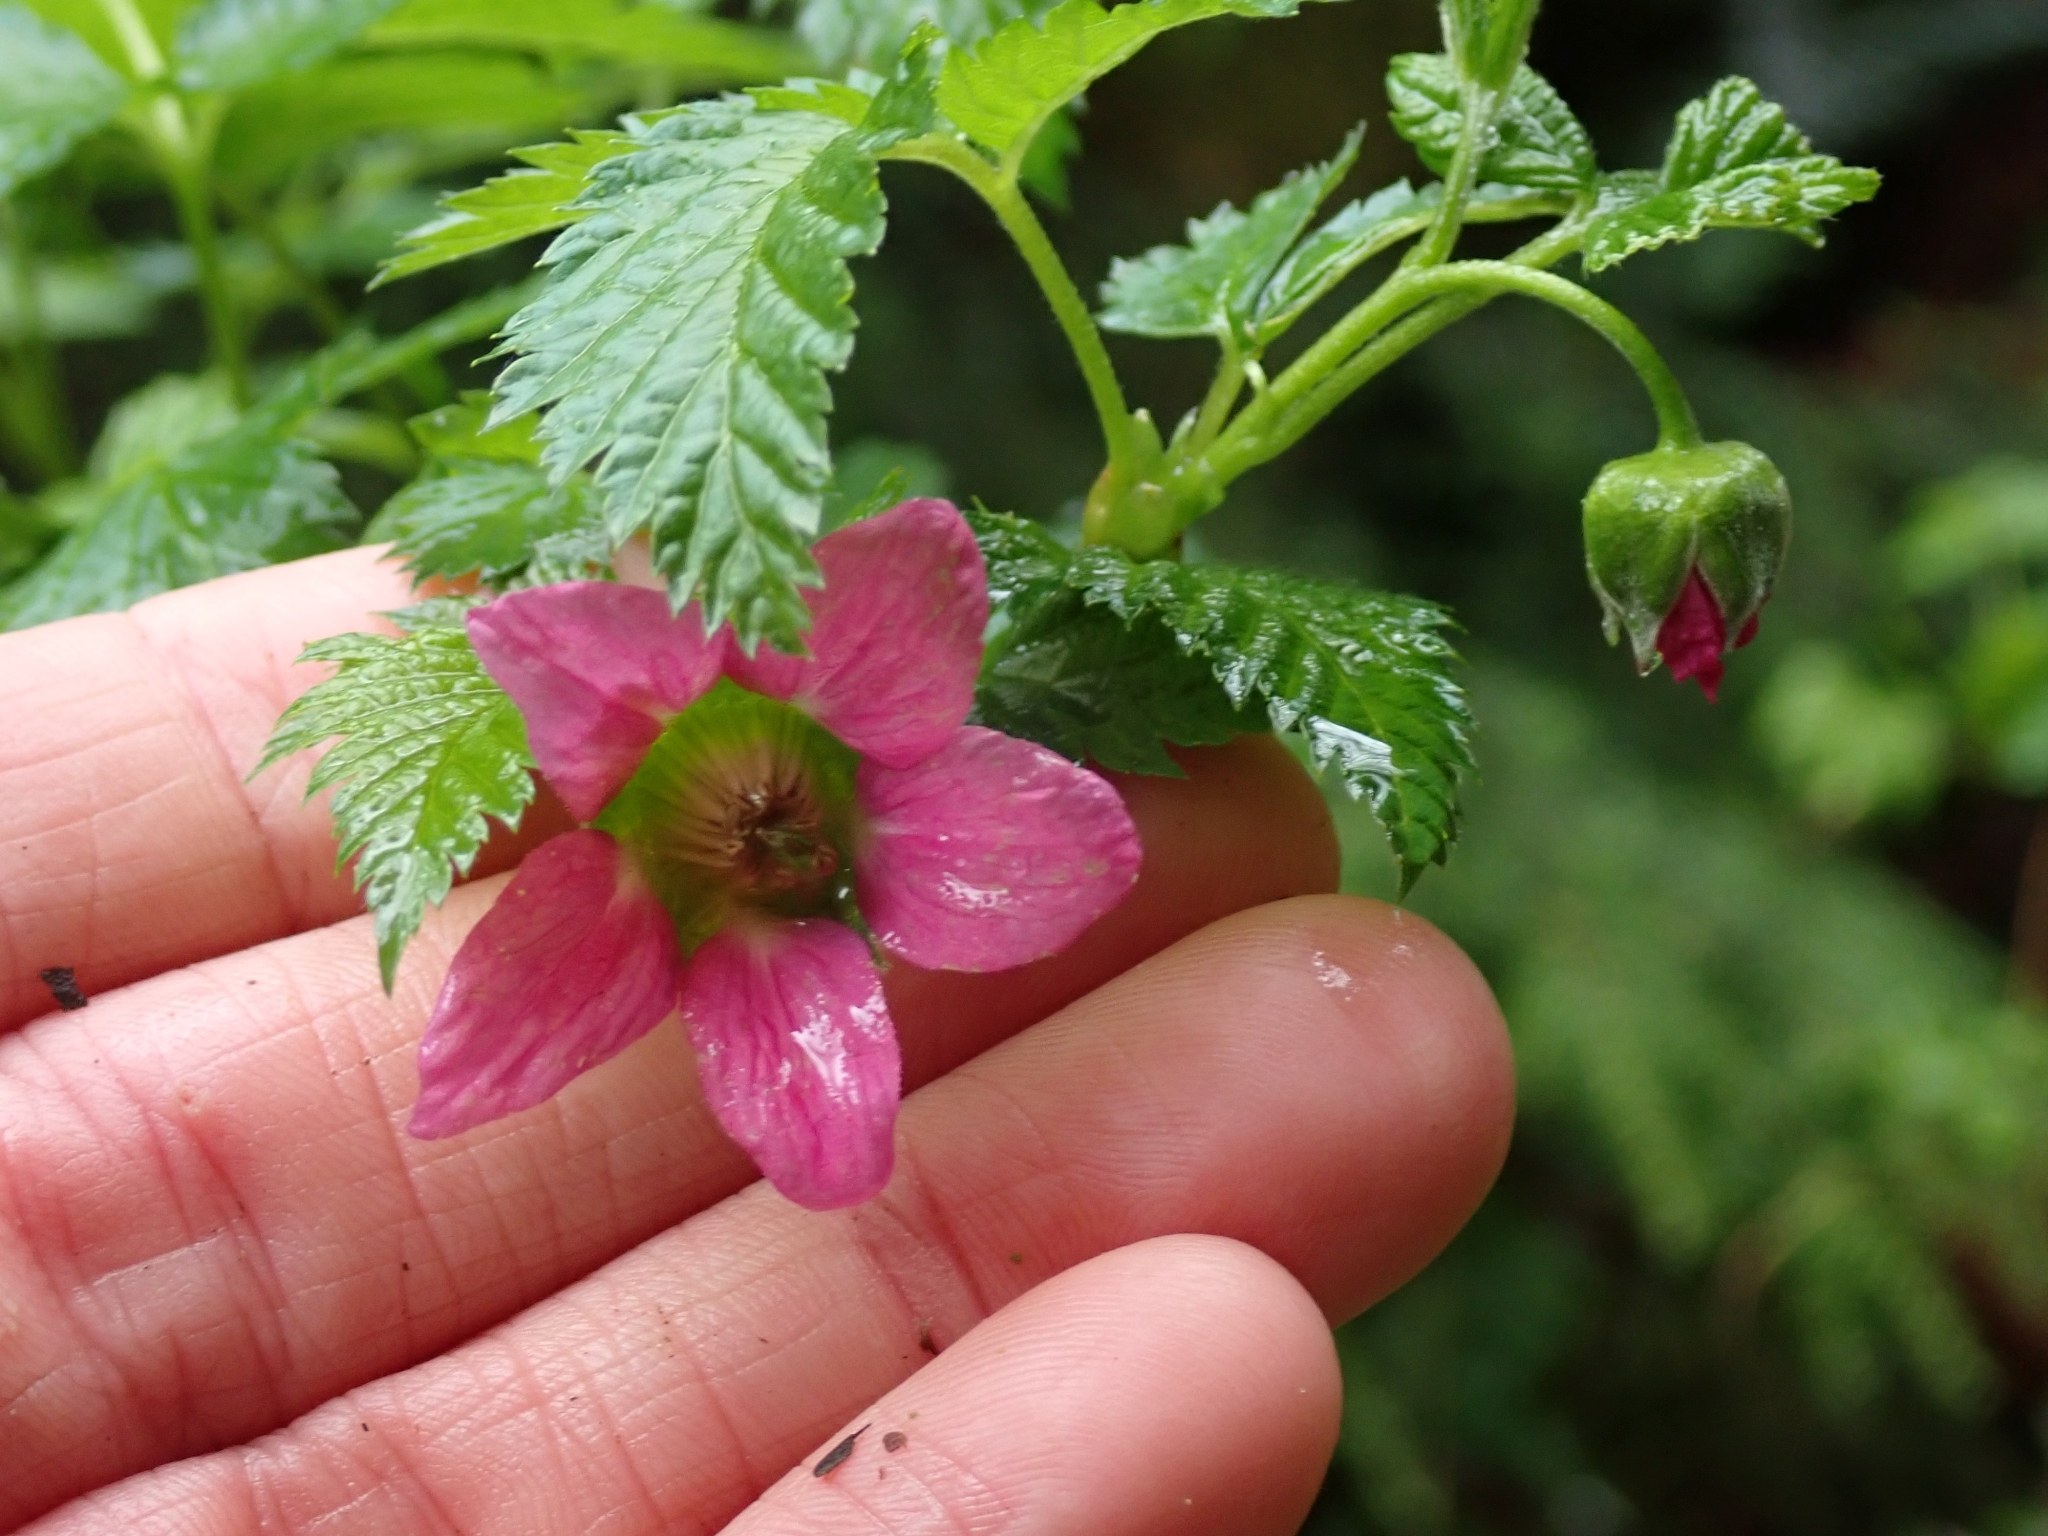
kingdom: Plantae
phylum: Tracheophyta
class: Magnoliopsida
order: Rosales
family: Rosaceae
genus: Rubus
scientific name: Rubus spectabilis
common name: Salmonberry
